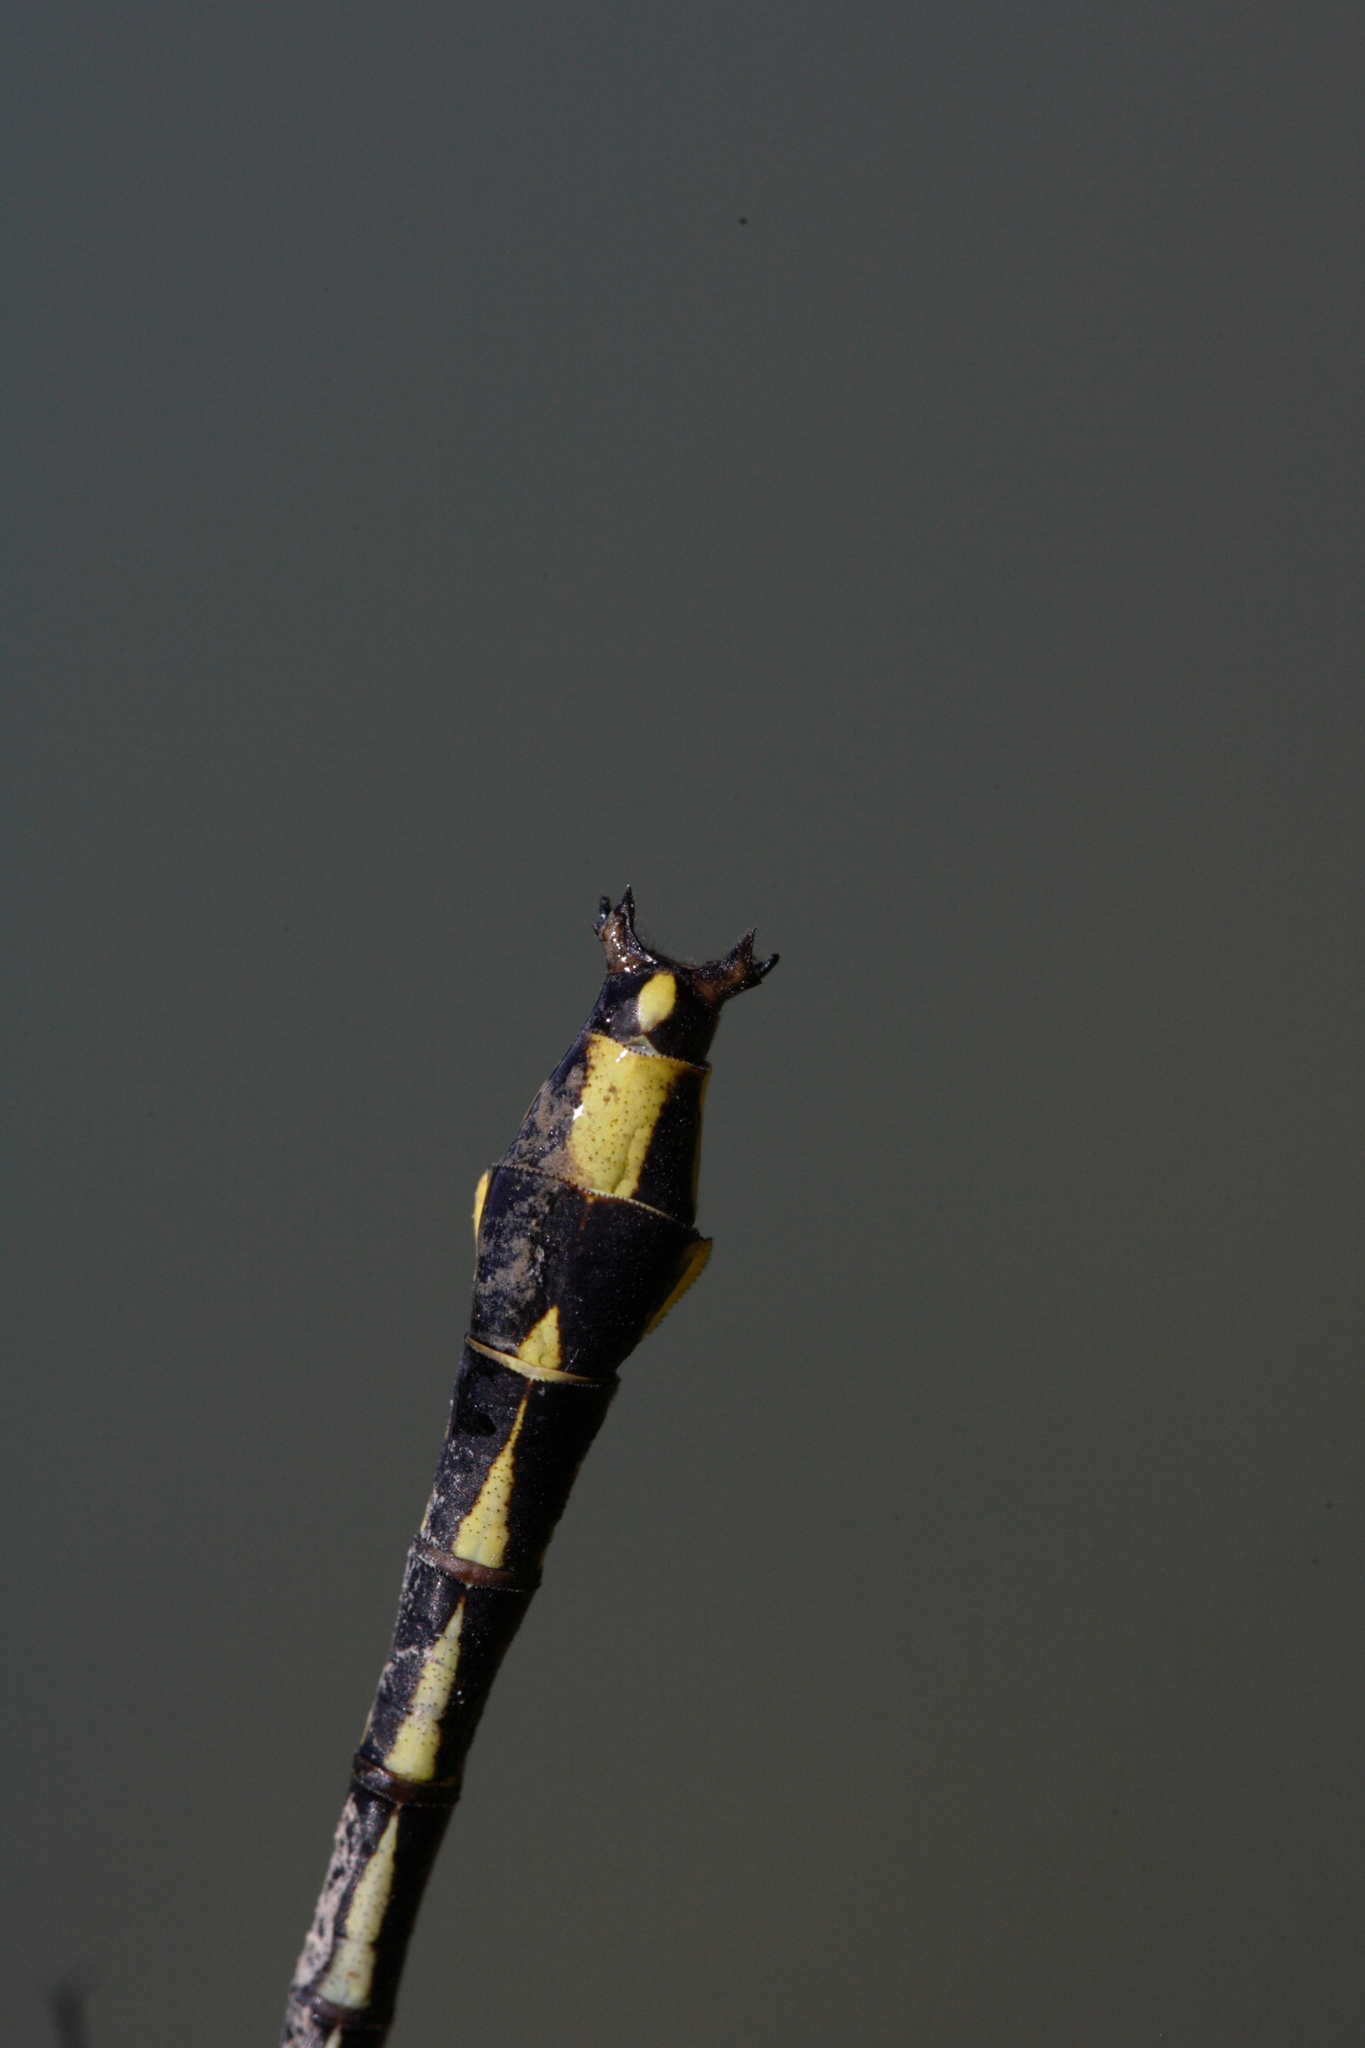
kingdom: Animalia
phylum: Arthropoda
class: Insecta
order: Odonata
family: Gomphidae
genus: Phanogomphus
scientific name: Phanogomphus graslinellus
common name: Pronghorn clubtail
